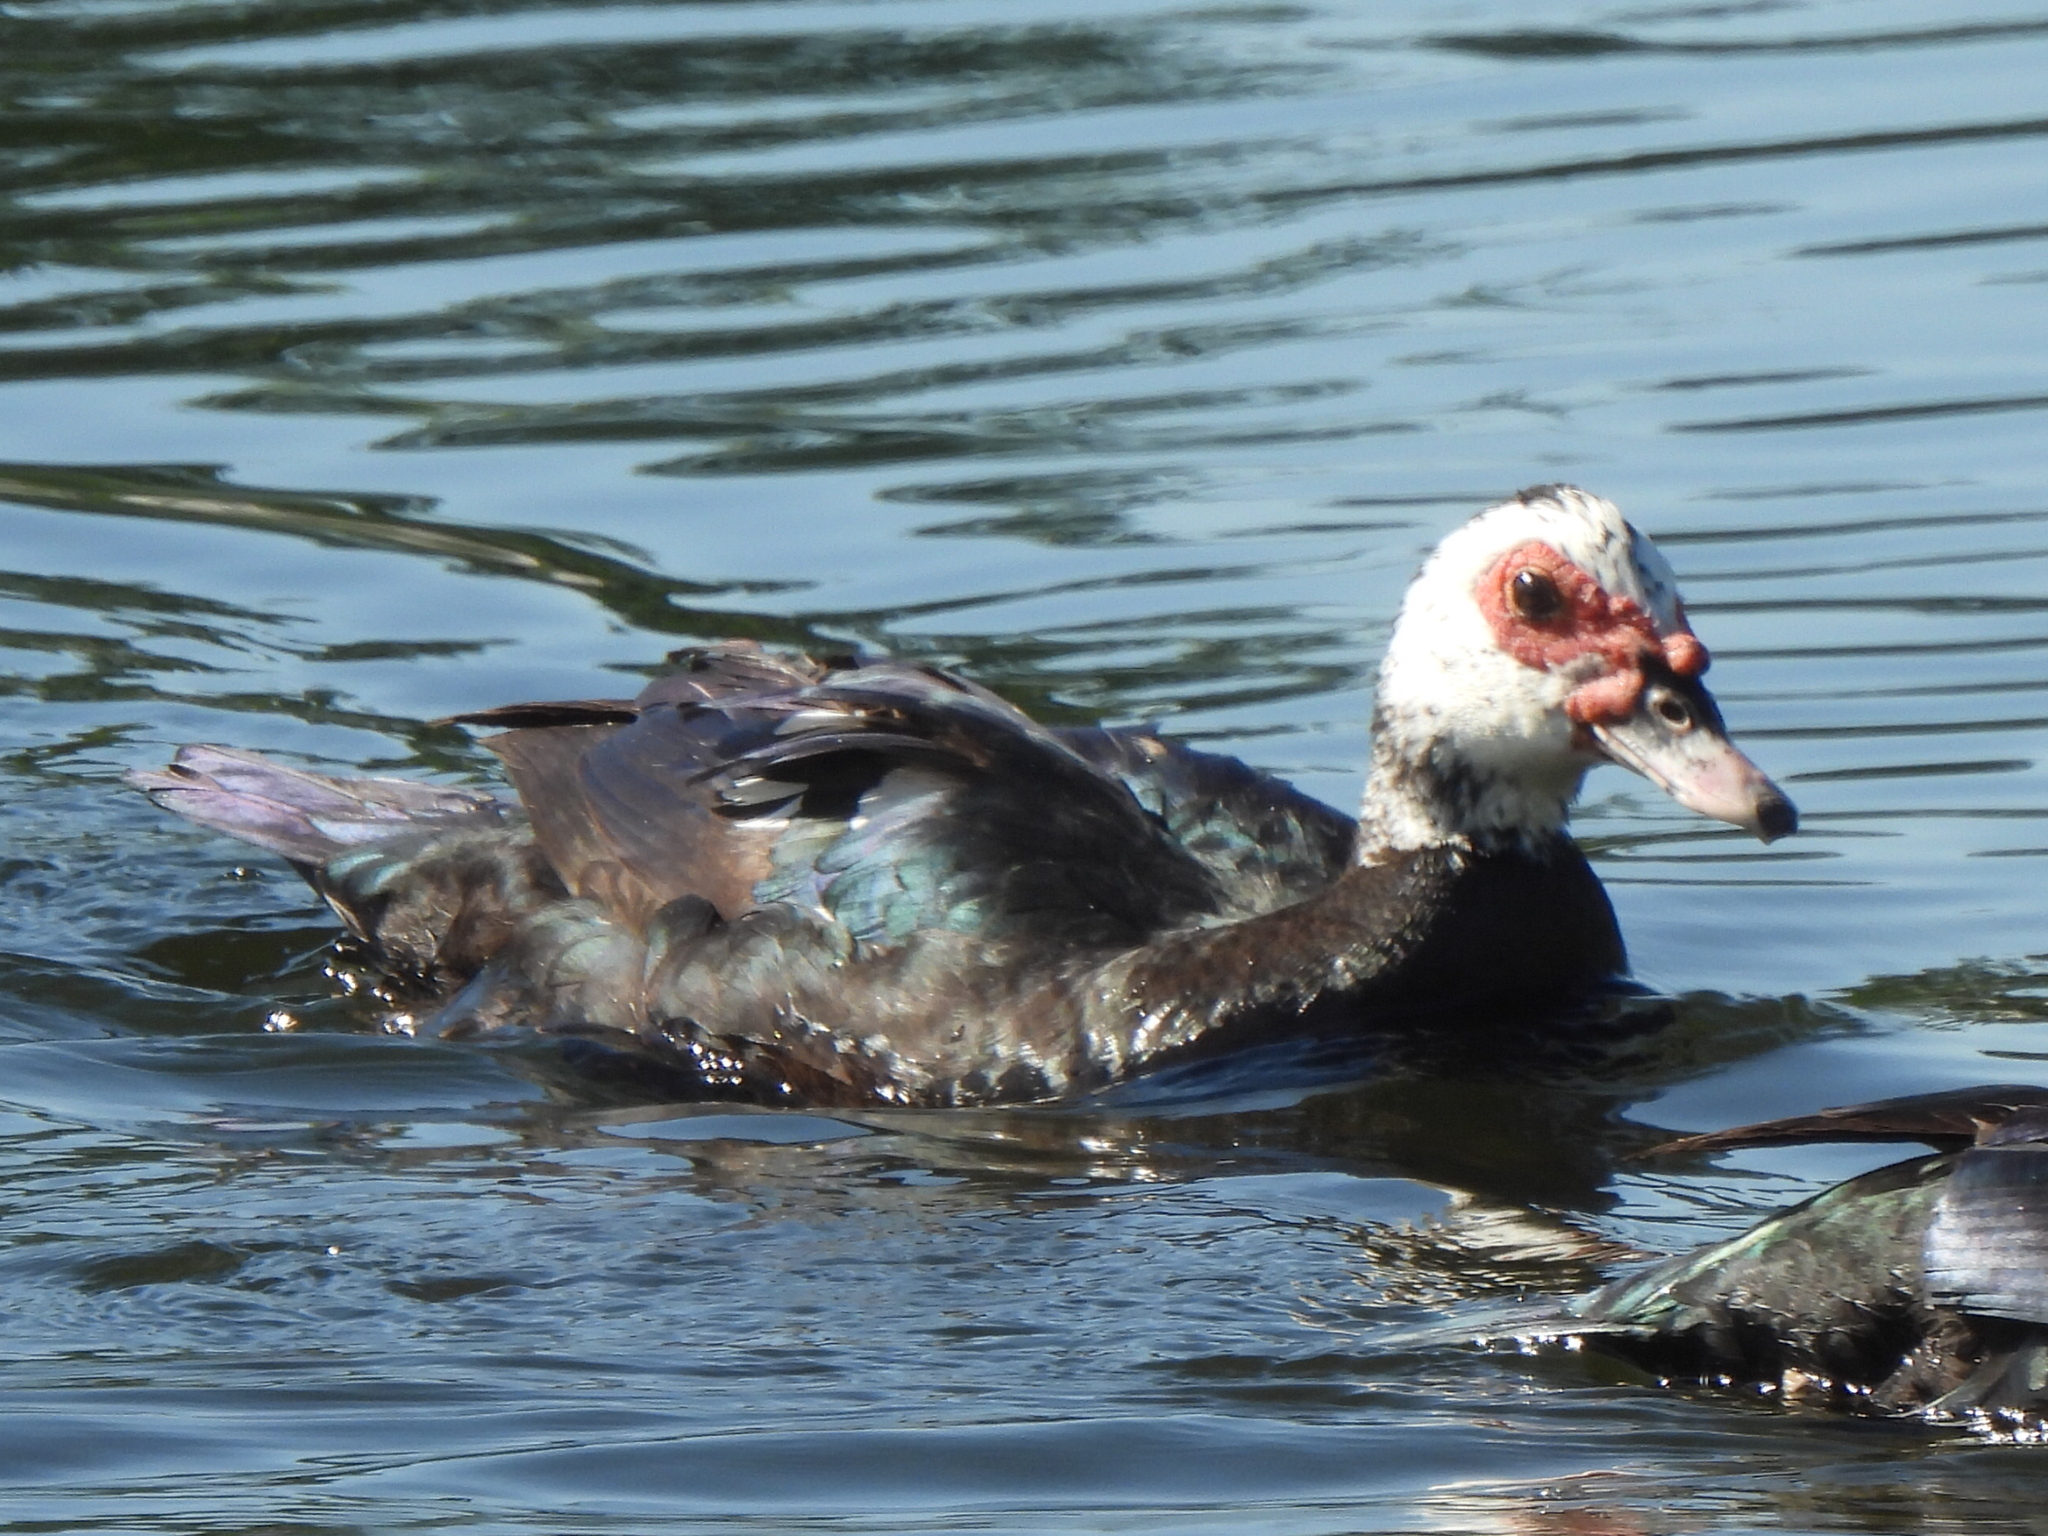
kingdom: Animalia
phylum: Chordata
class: Aves
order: Anseriformes
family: Anatidae
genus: Cairina
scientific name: Cairina moschata
